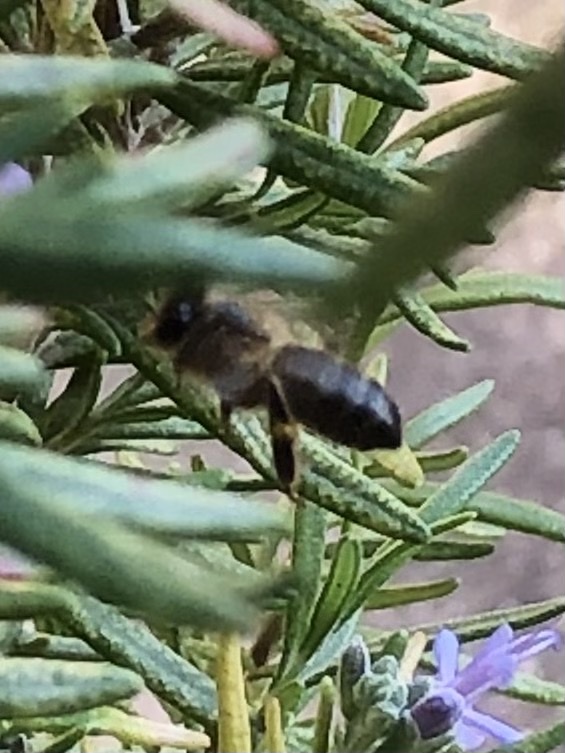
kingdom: Animalia
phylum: Arthropoda
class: Insecta
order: Hymenoptera
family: Apidae
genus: Apis
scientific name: Apis mellifera
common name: Honey bee
